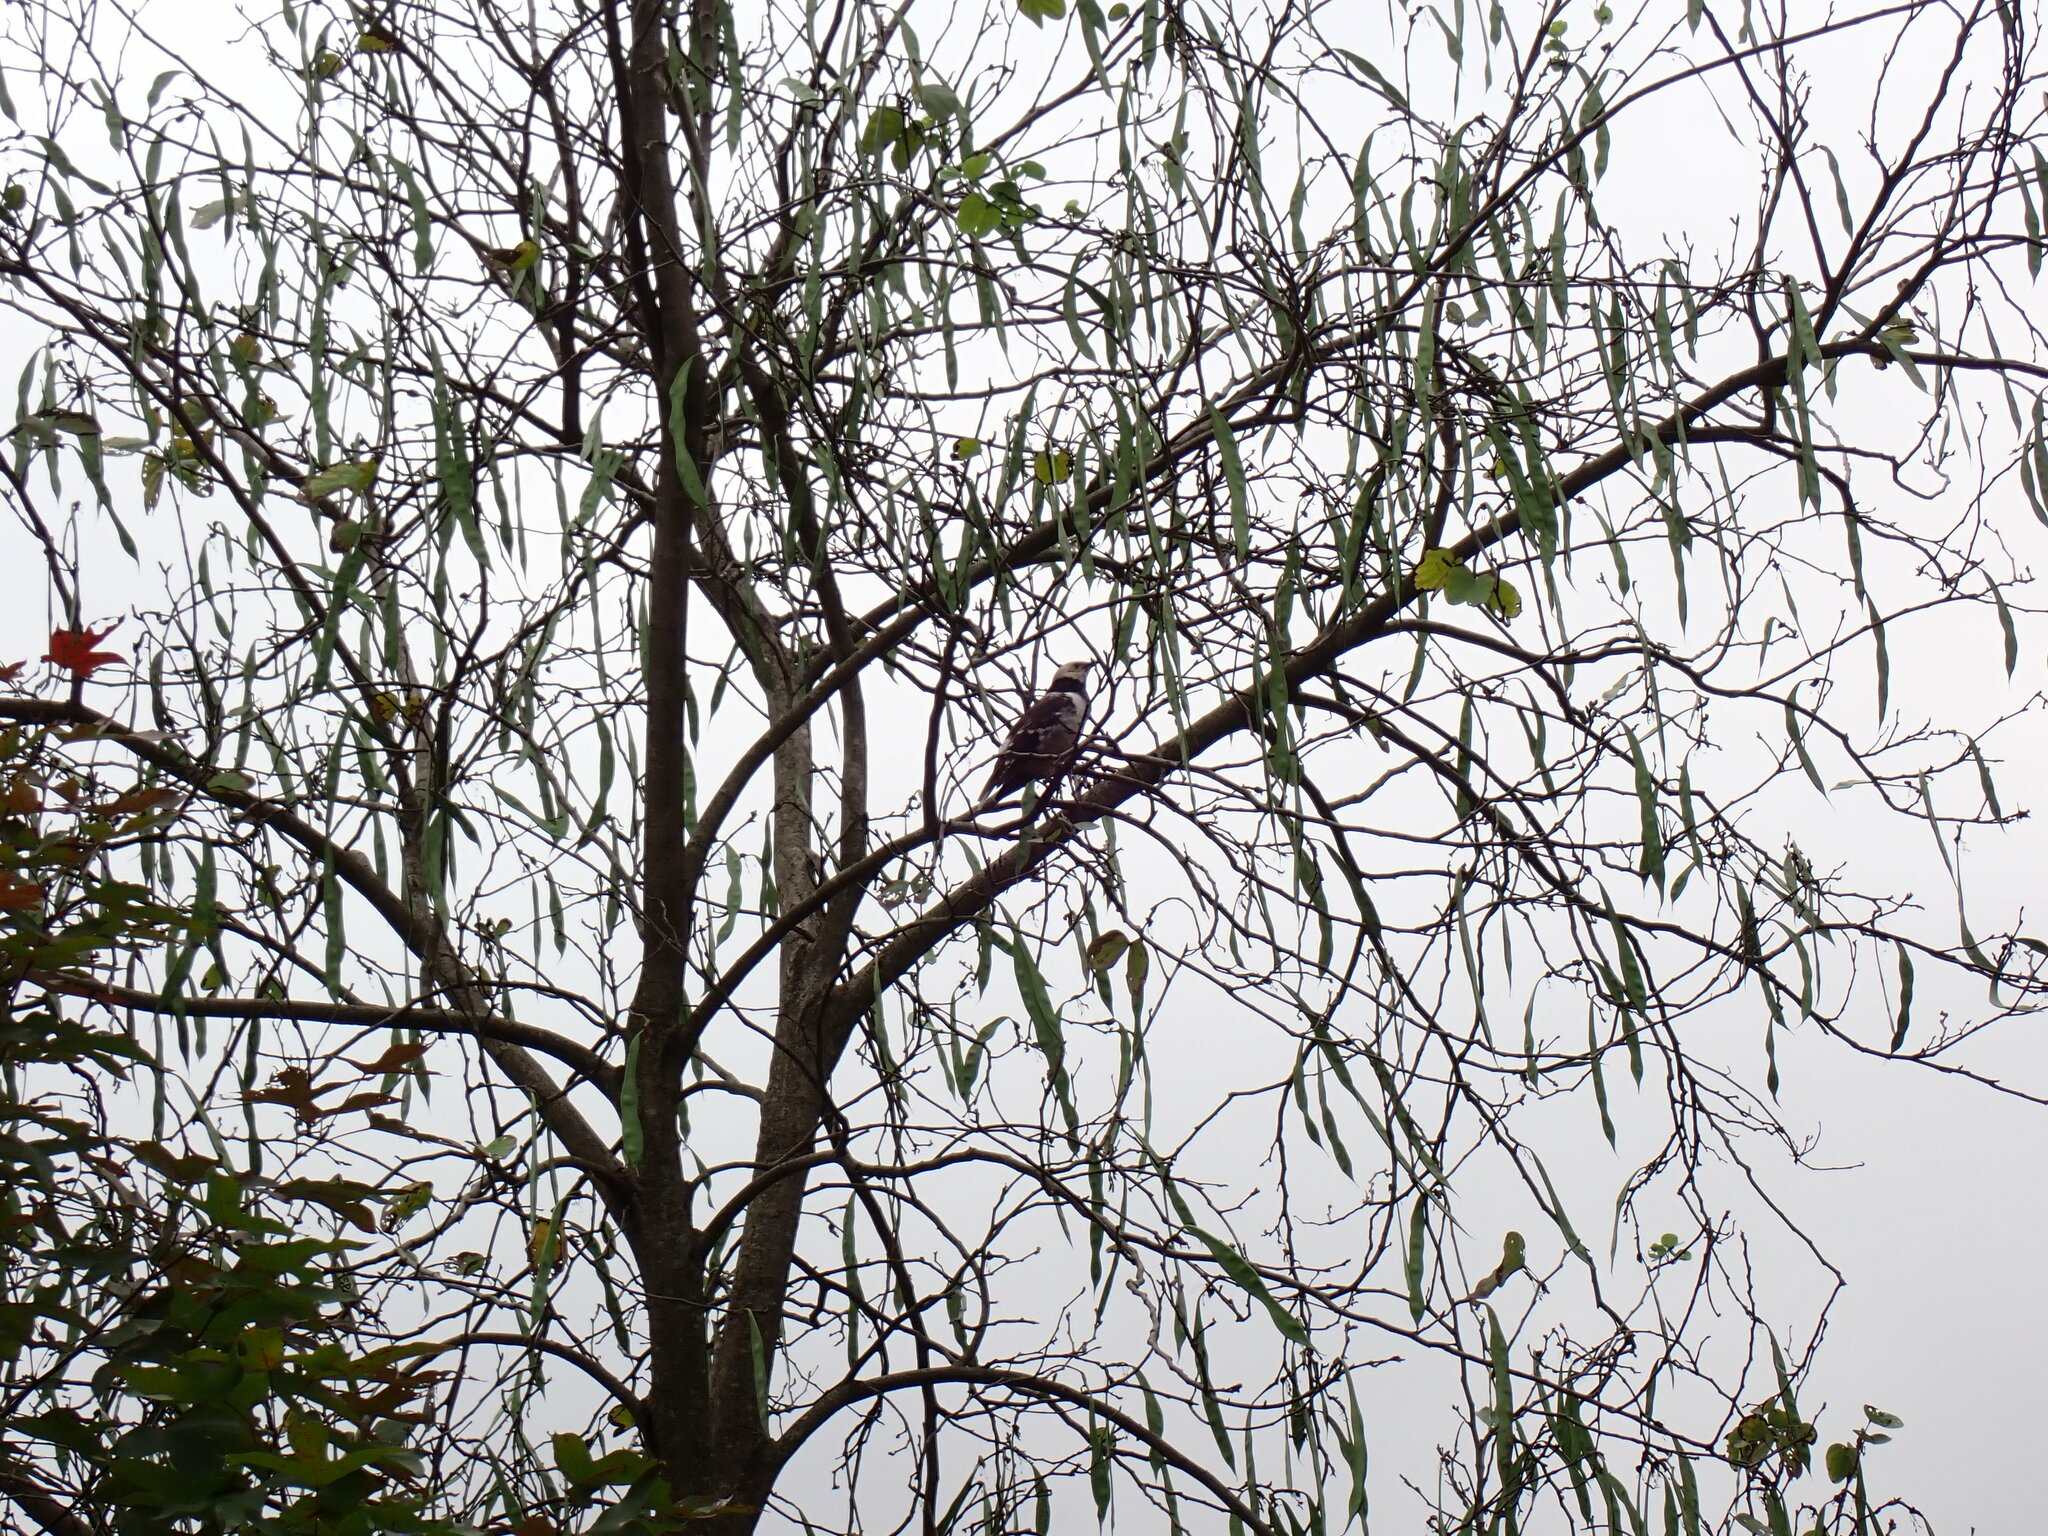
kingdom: Animalia
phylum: Chordata
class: Aves
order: Passeriformes
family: Sturnidae
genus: Gracupica
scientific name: Gracupica nigricollis
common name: Black-collared starling
